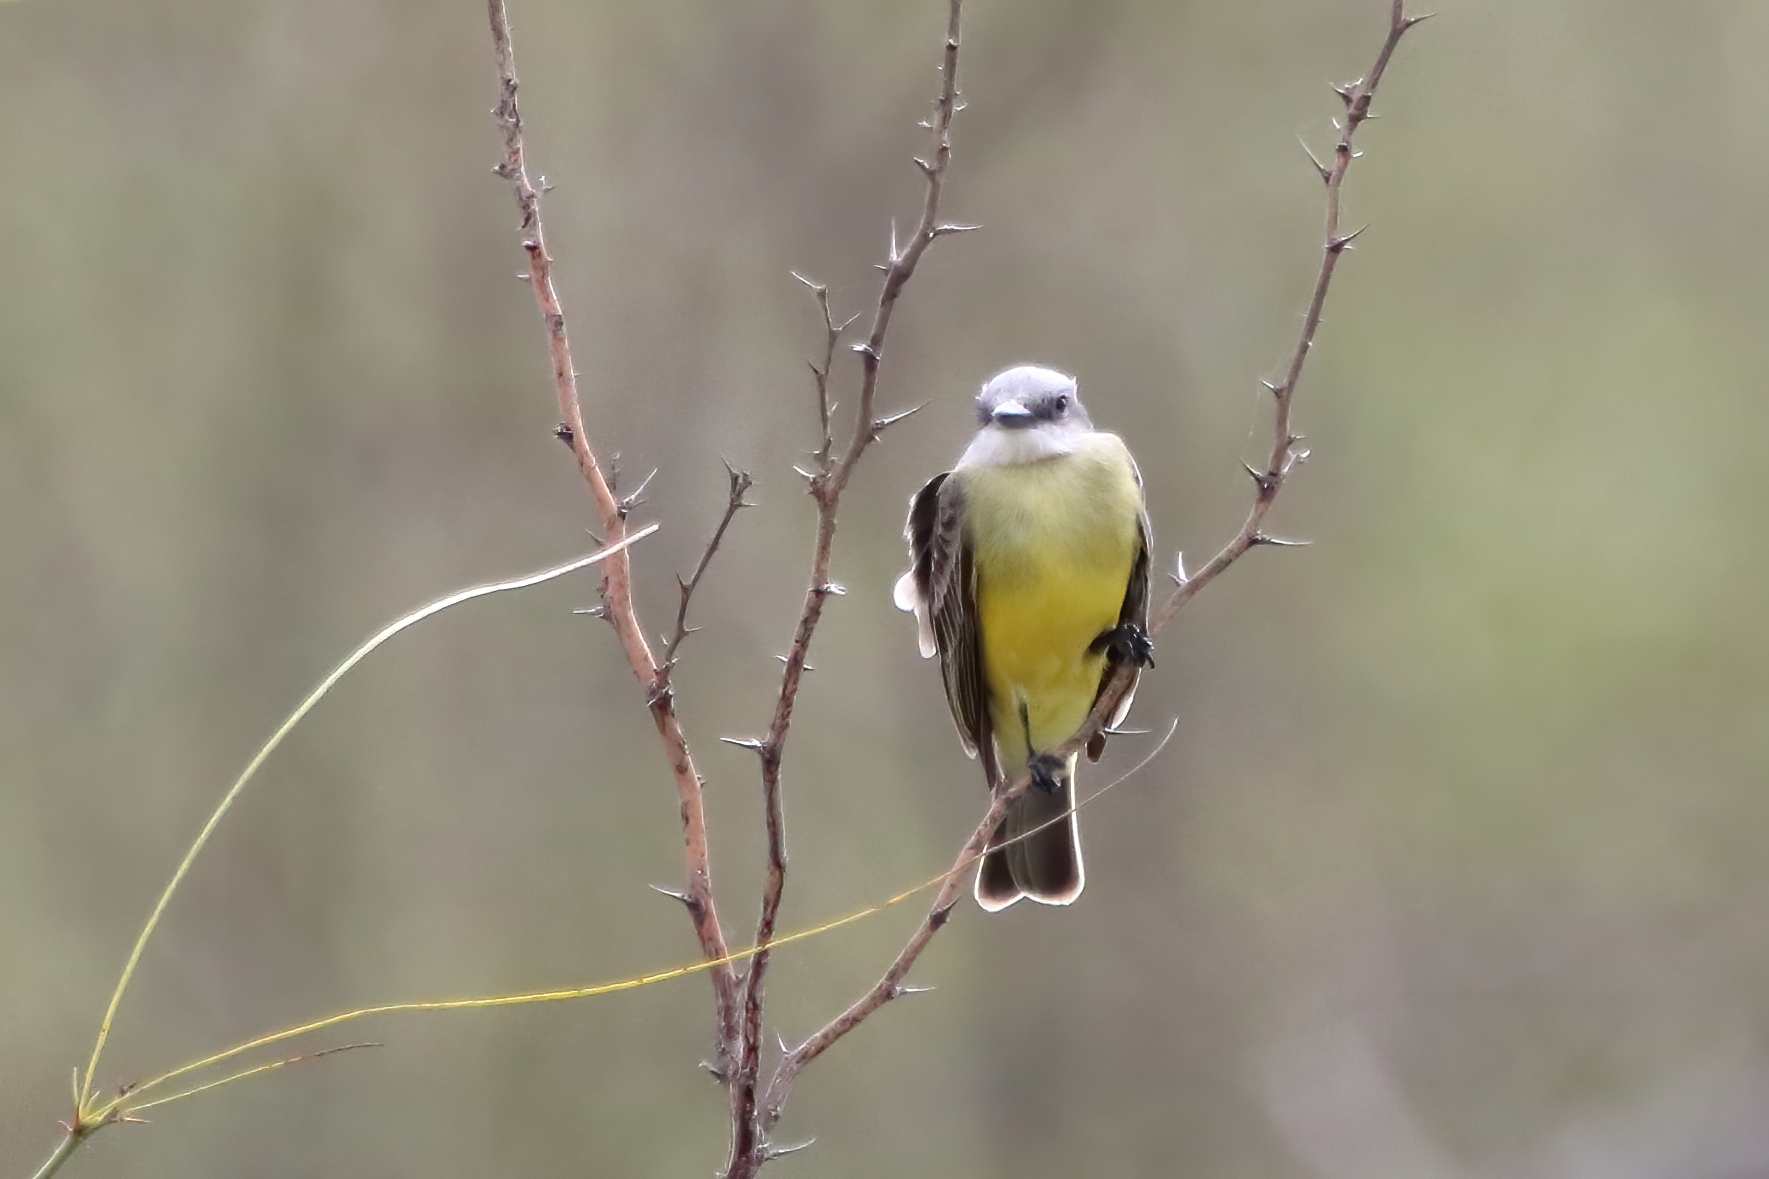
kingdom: Animalia
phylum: Chordata
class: Aves
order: Passeriformes
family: Tyrannidae
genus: Tyrannus
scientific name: Tyrannus melancholicus
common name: Tropical kingbird
